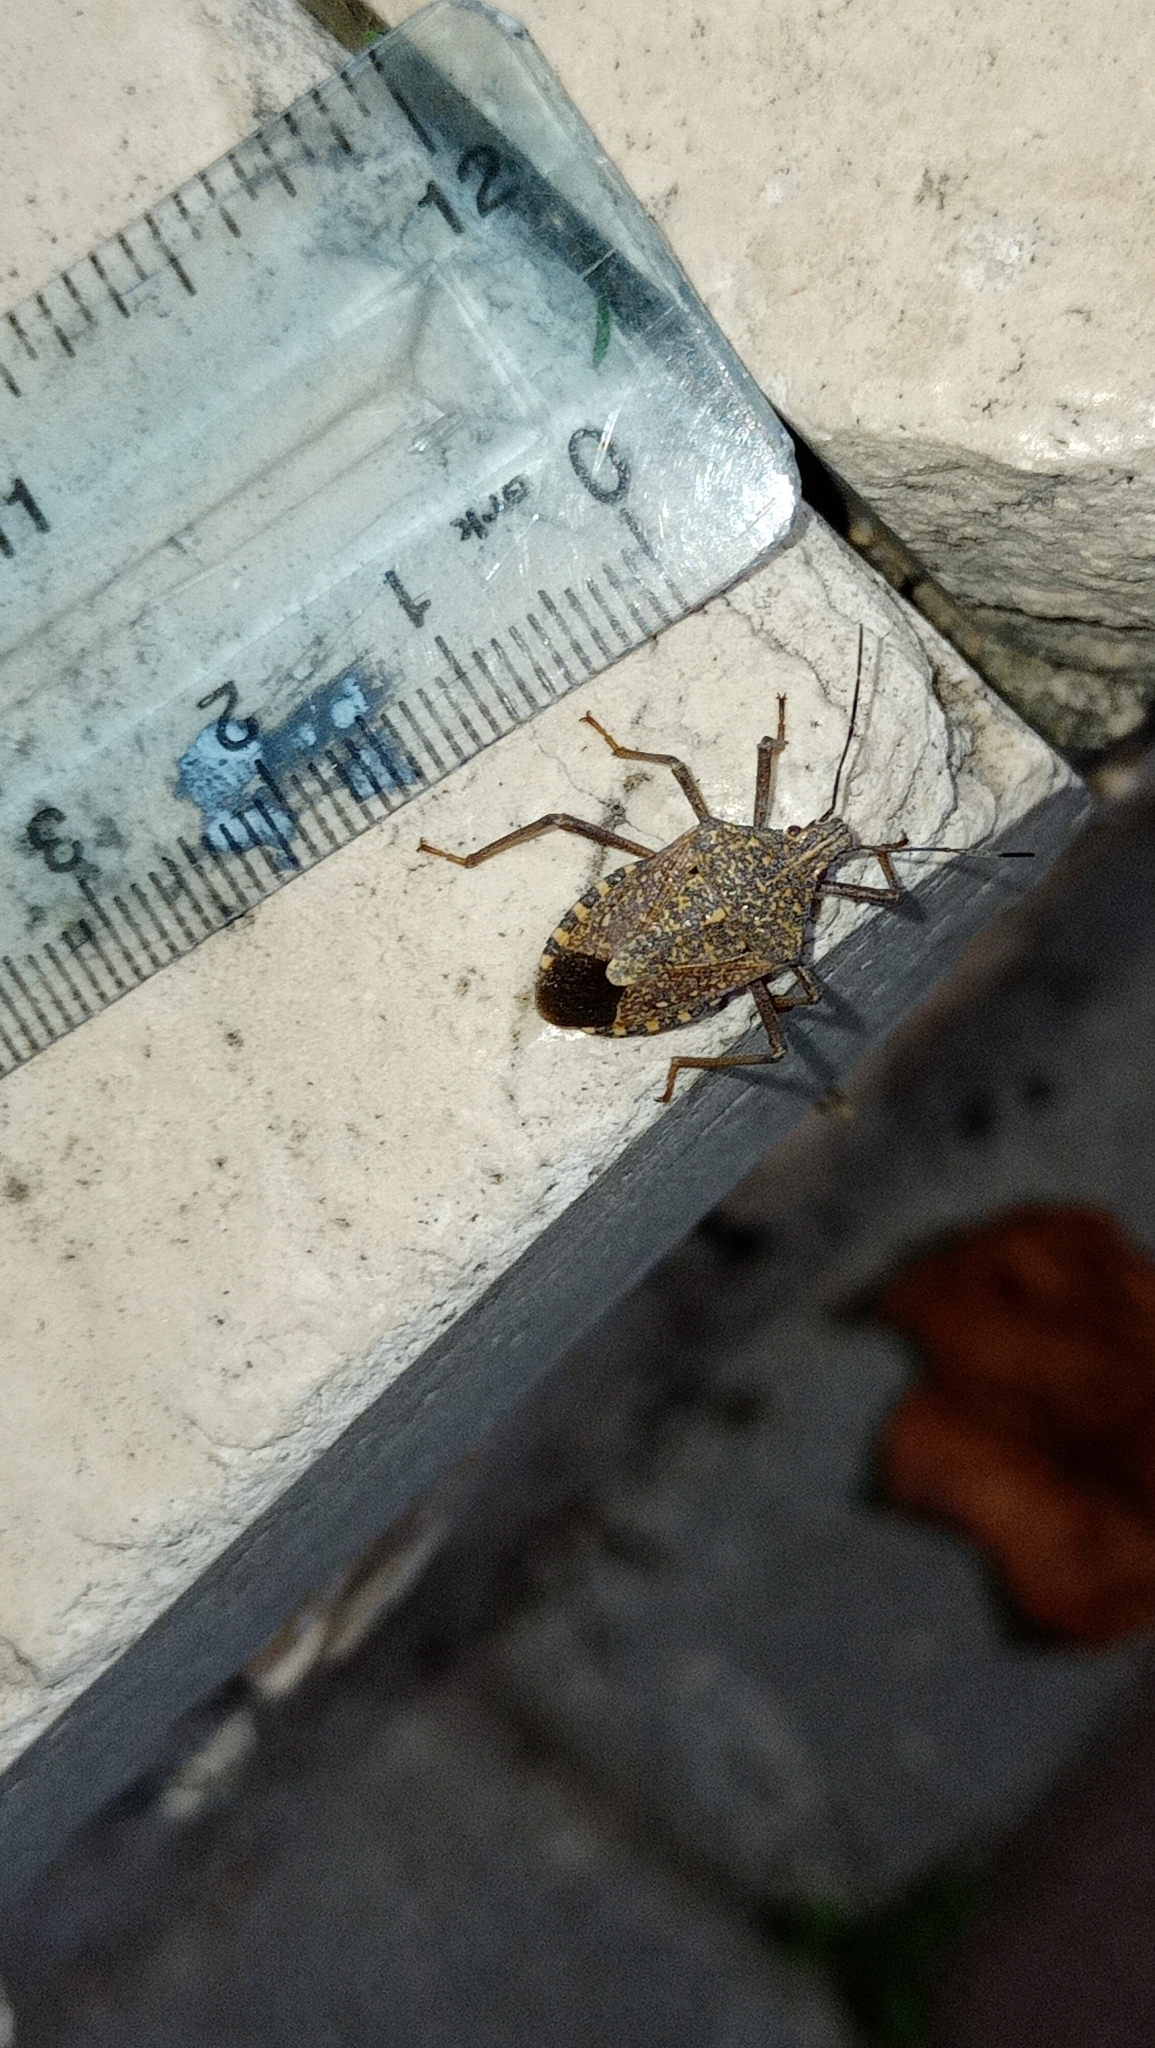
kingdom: Animalia
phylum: Arthropoda
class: Insecta
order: Hemiptera
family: Pentatomidae
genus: Apodiphus
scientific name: Apodiphus
